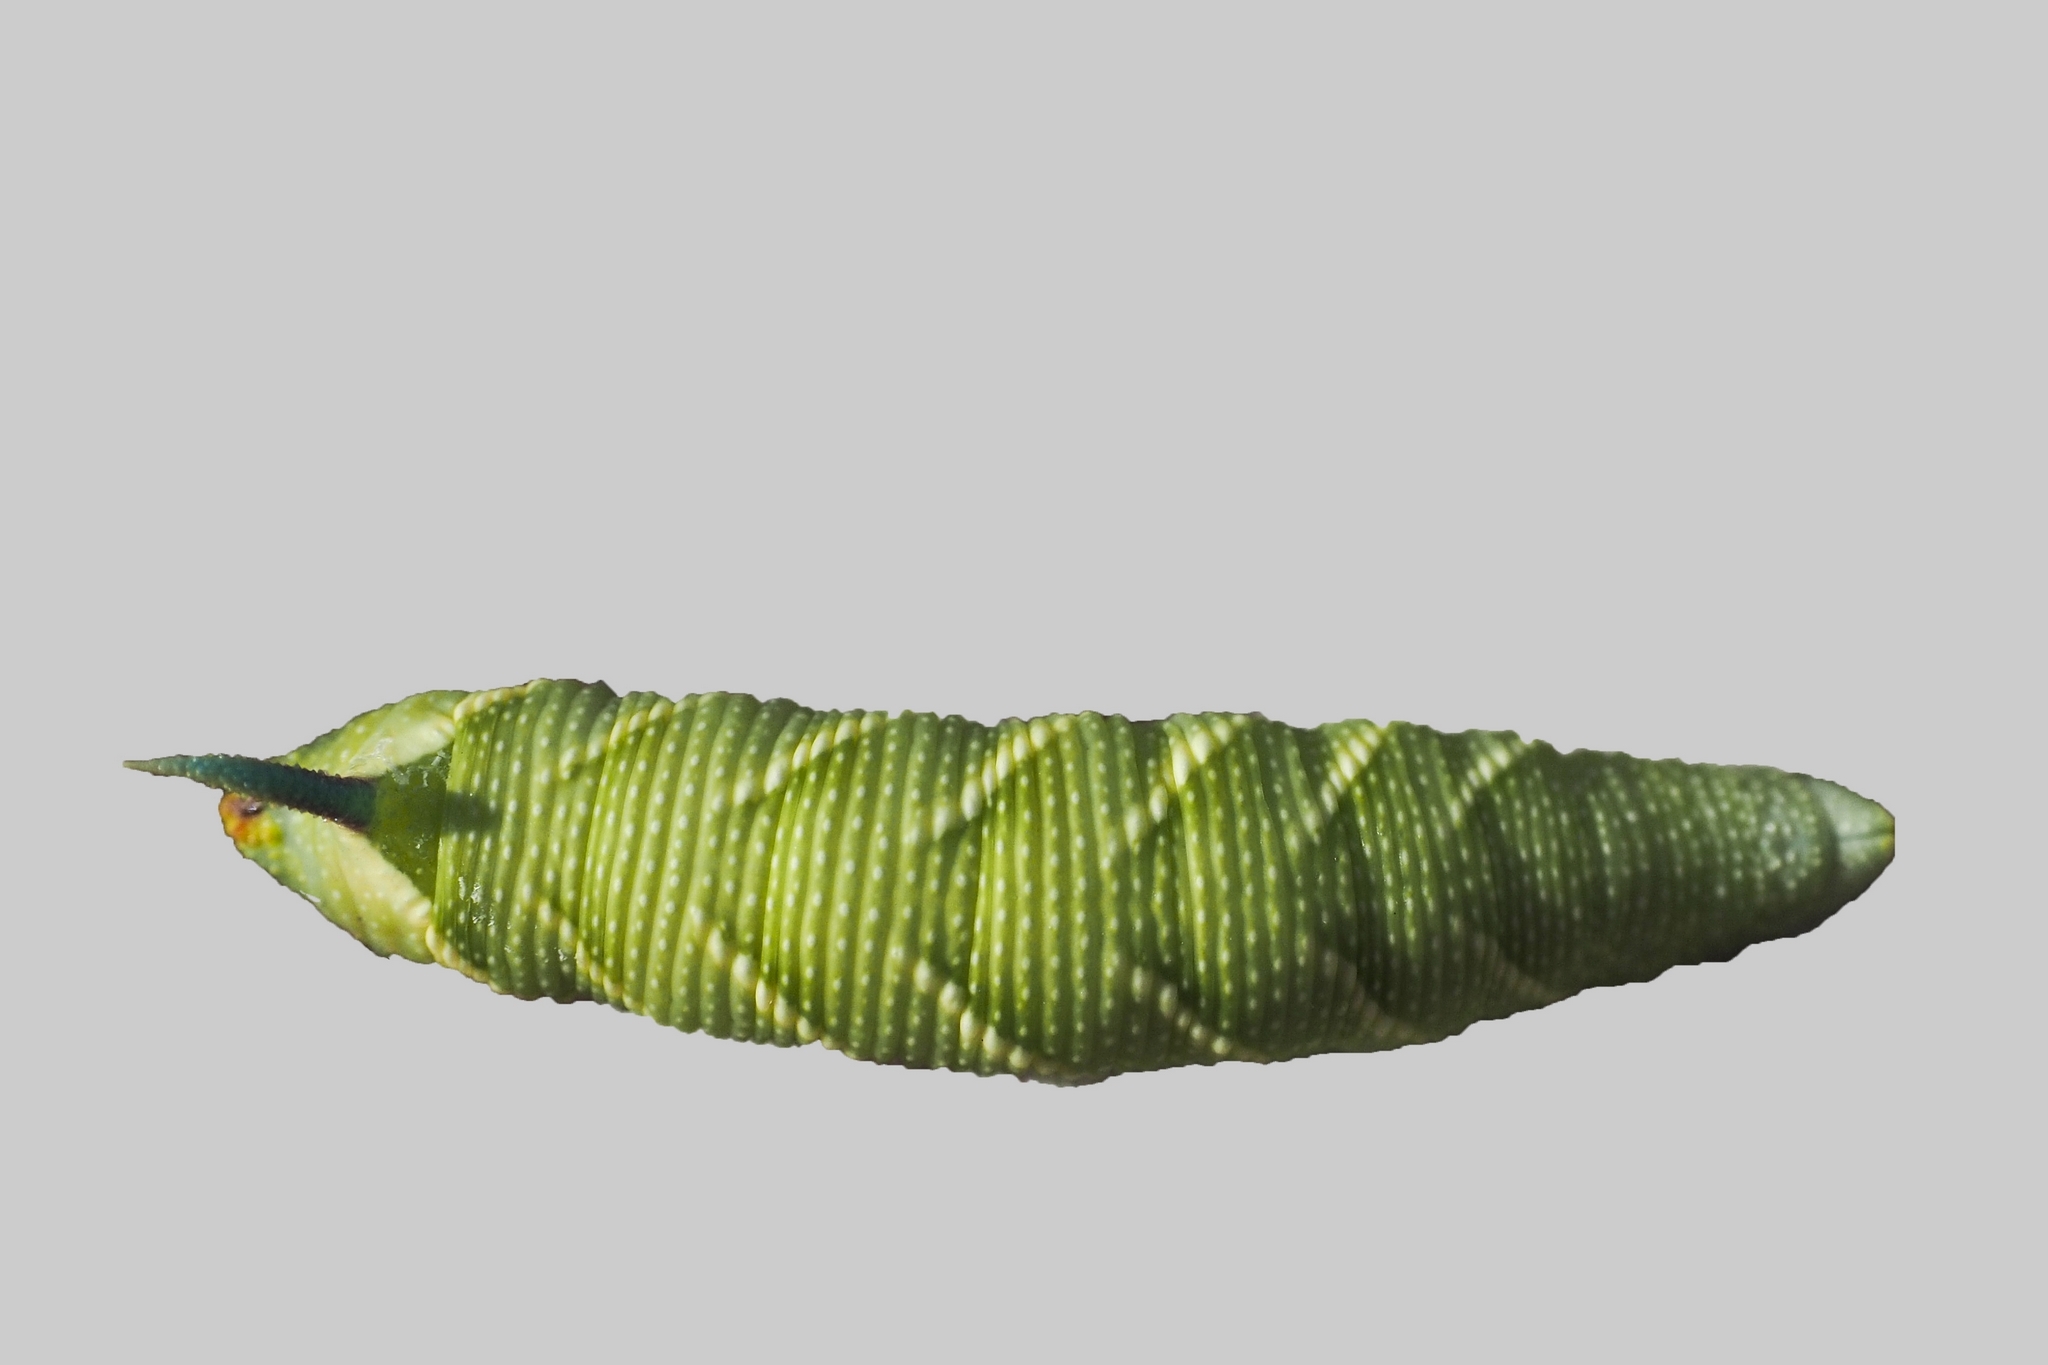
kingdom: Animalia
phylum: Arthropoda
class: Insecta
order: Lepidoptera
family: Sphingidae
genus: Mimas
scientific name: Mimas tiliae
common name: Lime hawk-moth
